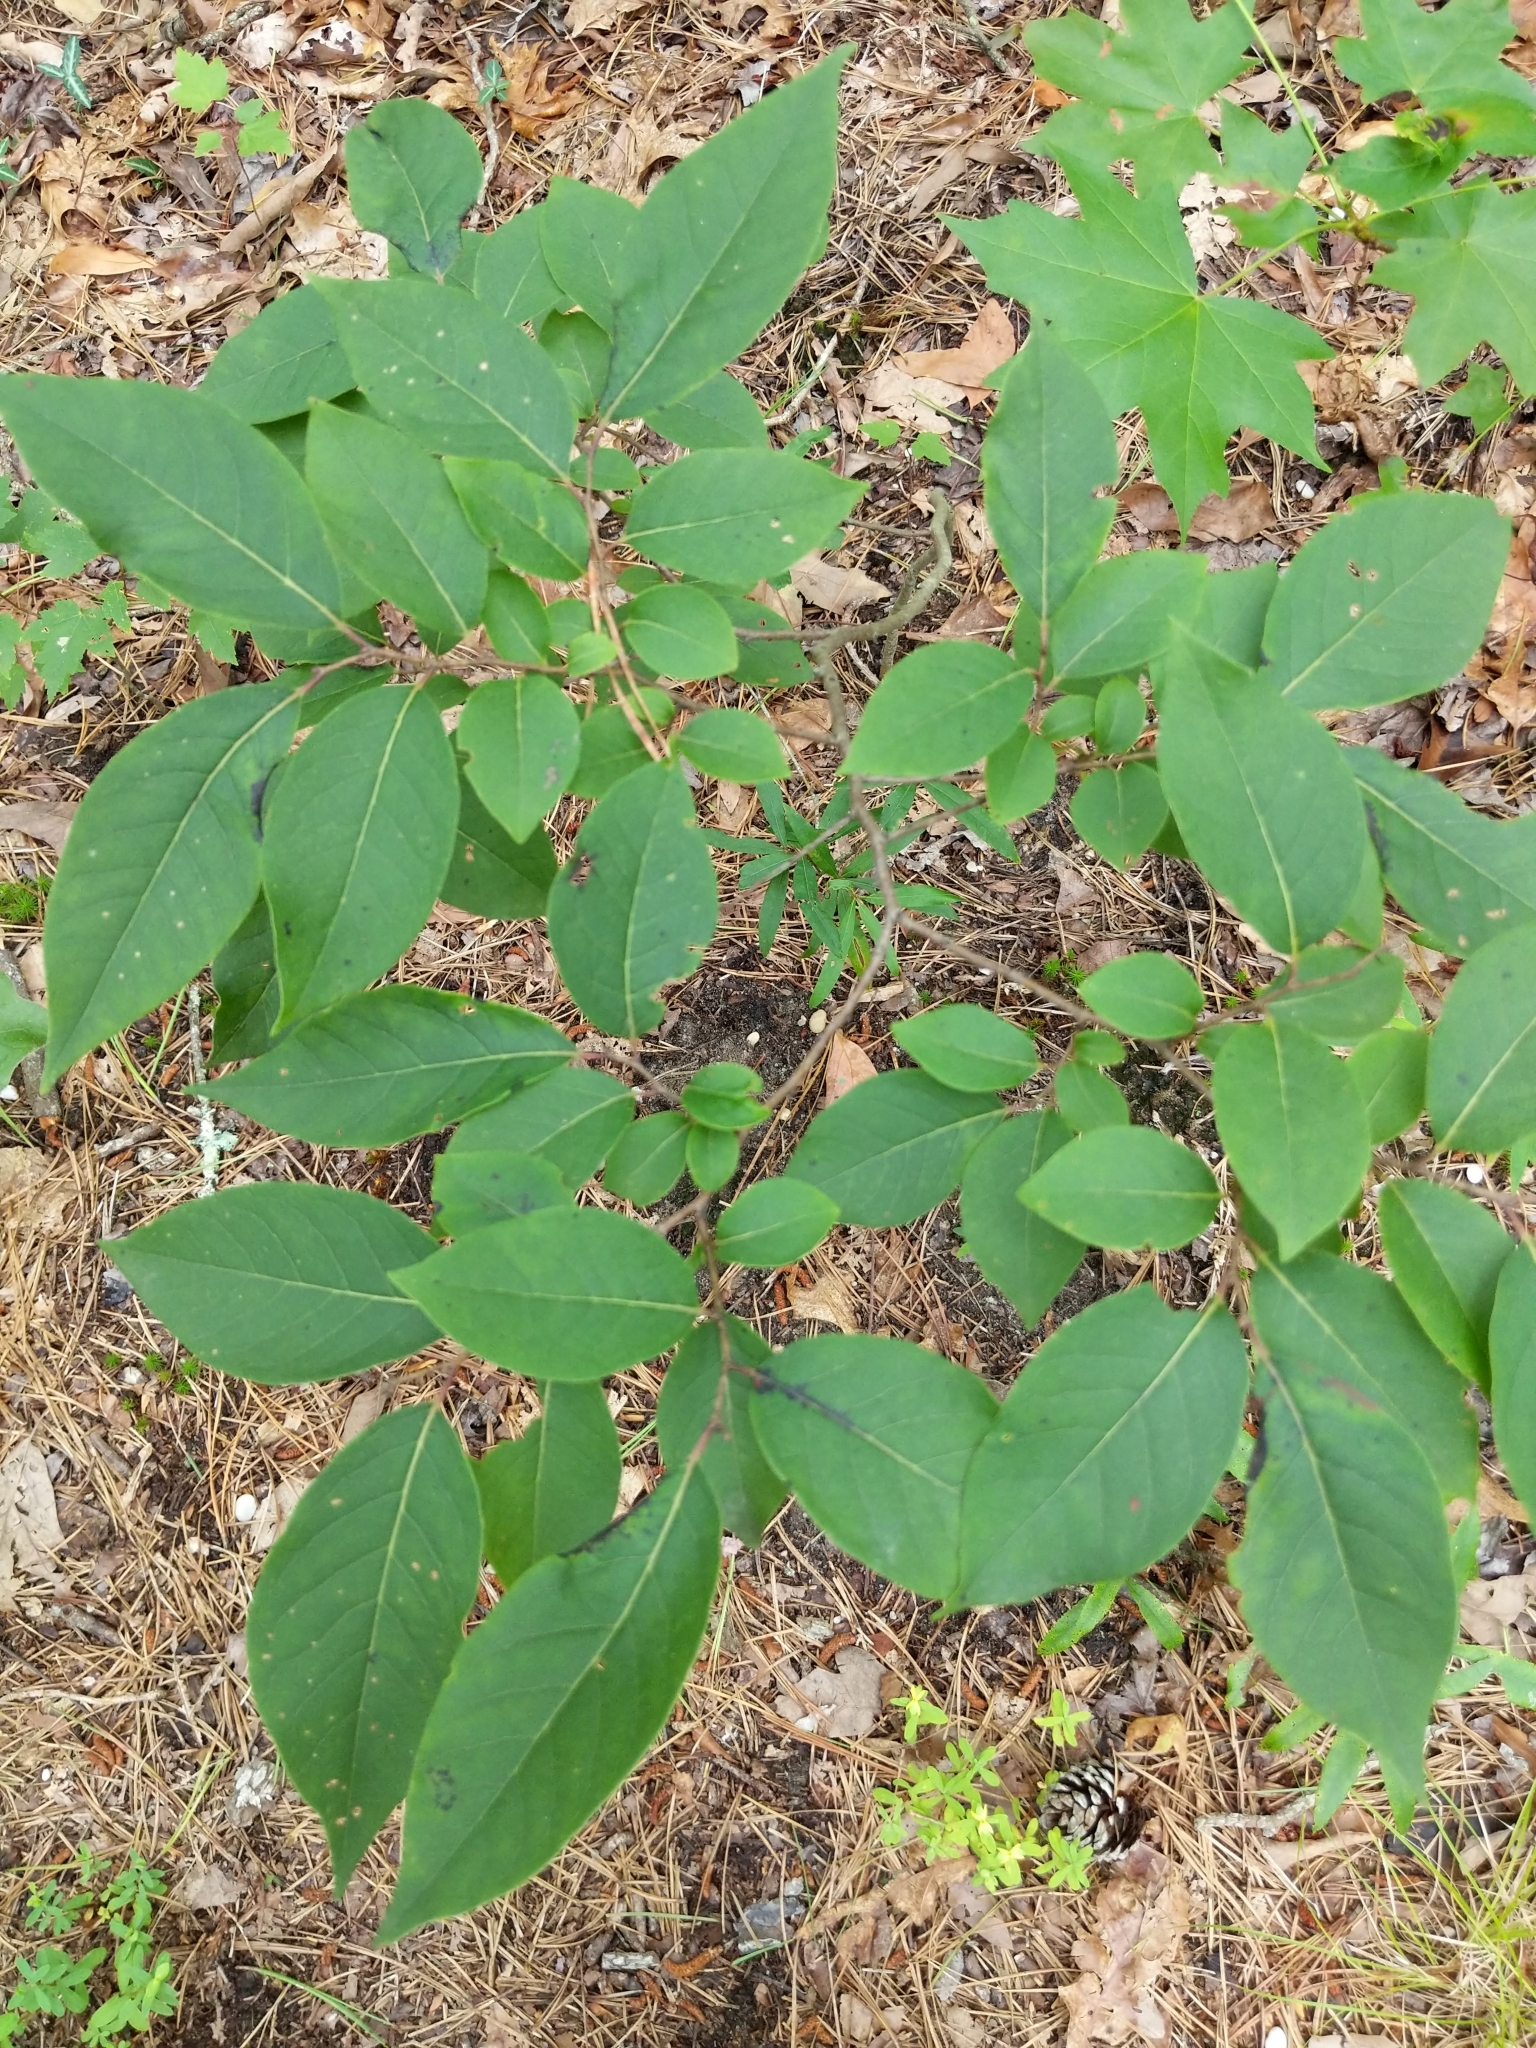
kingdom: Plantae
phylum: Tracheophyta
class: Magnoliopsida
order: Ericales
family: Ebenaceae
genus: Diospyros
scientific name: Diospyros virginiana
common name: Persimmon
